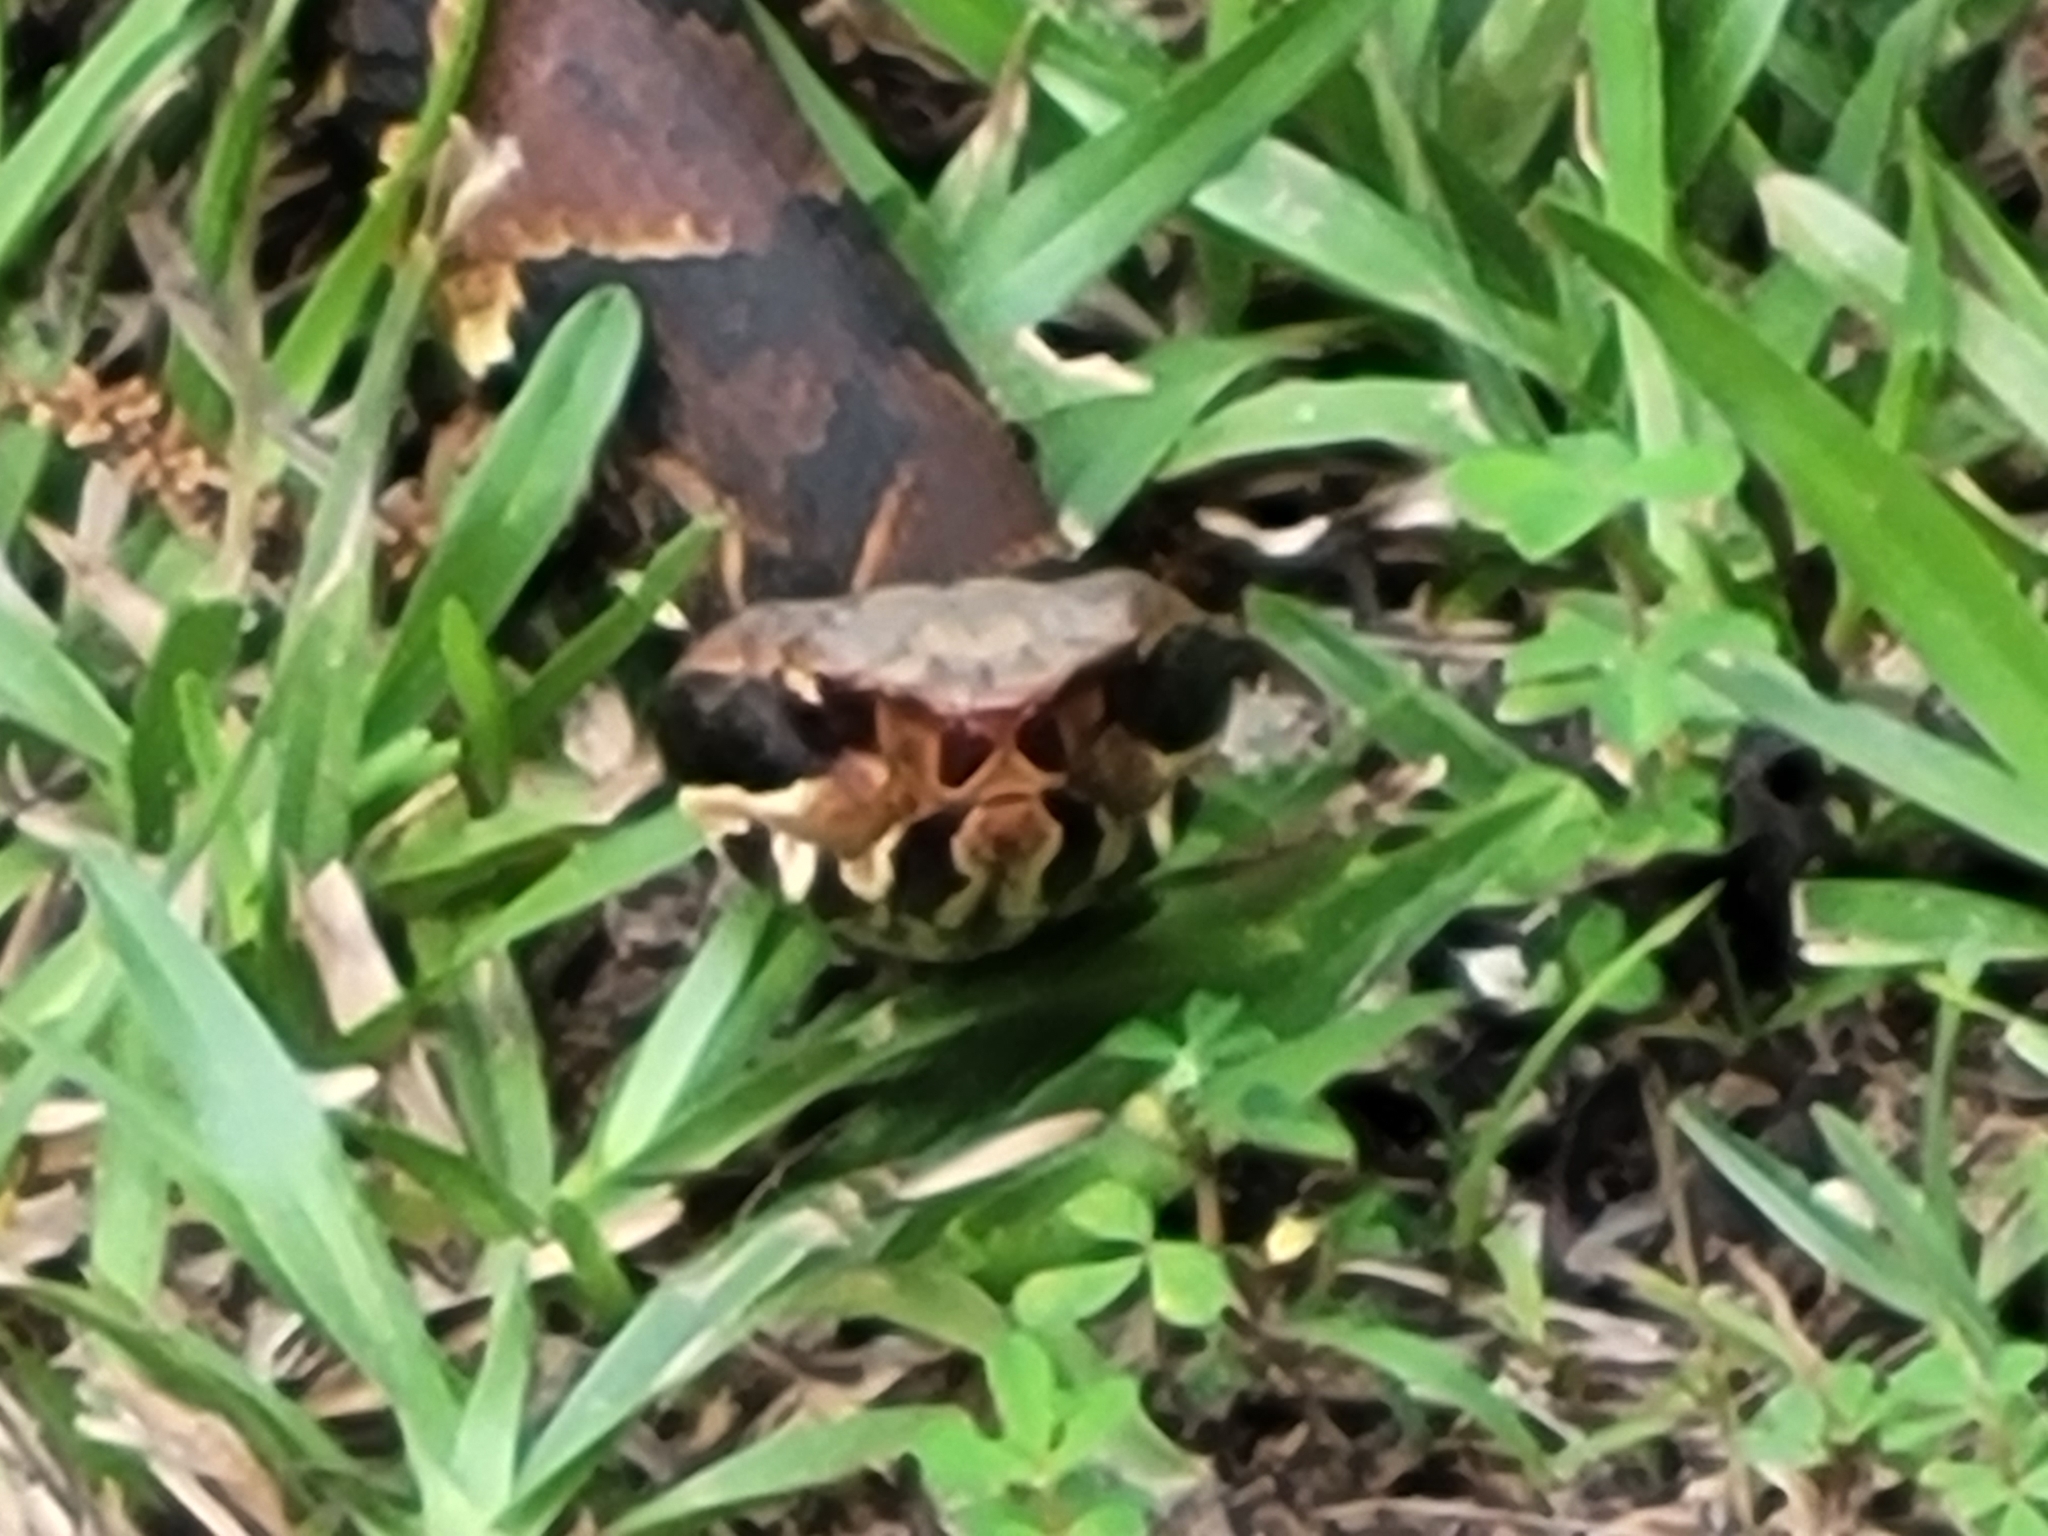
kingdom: Animalia
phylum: Chordata
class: Squamata
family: Viperidae
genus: Agkistrodon
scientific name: Agkistrodon piscivorus
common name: Cottonmouth
